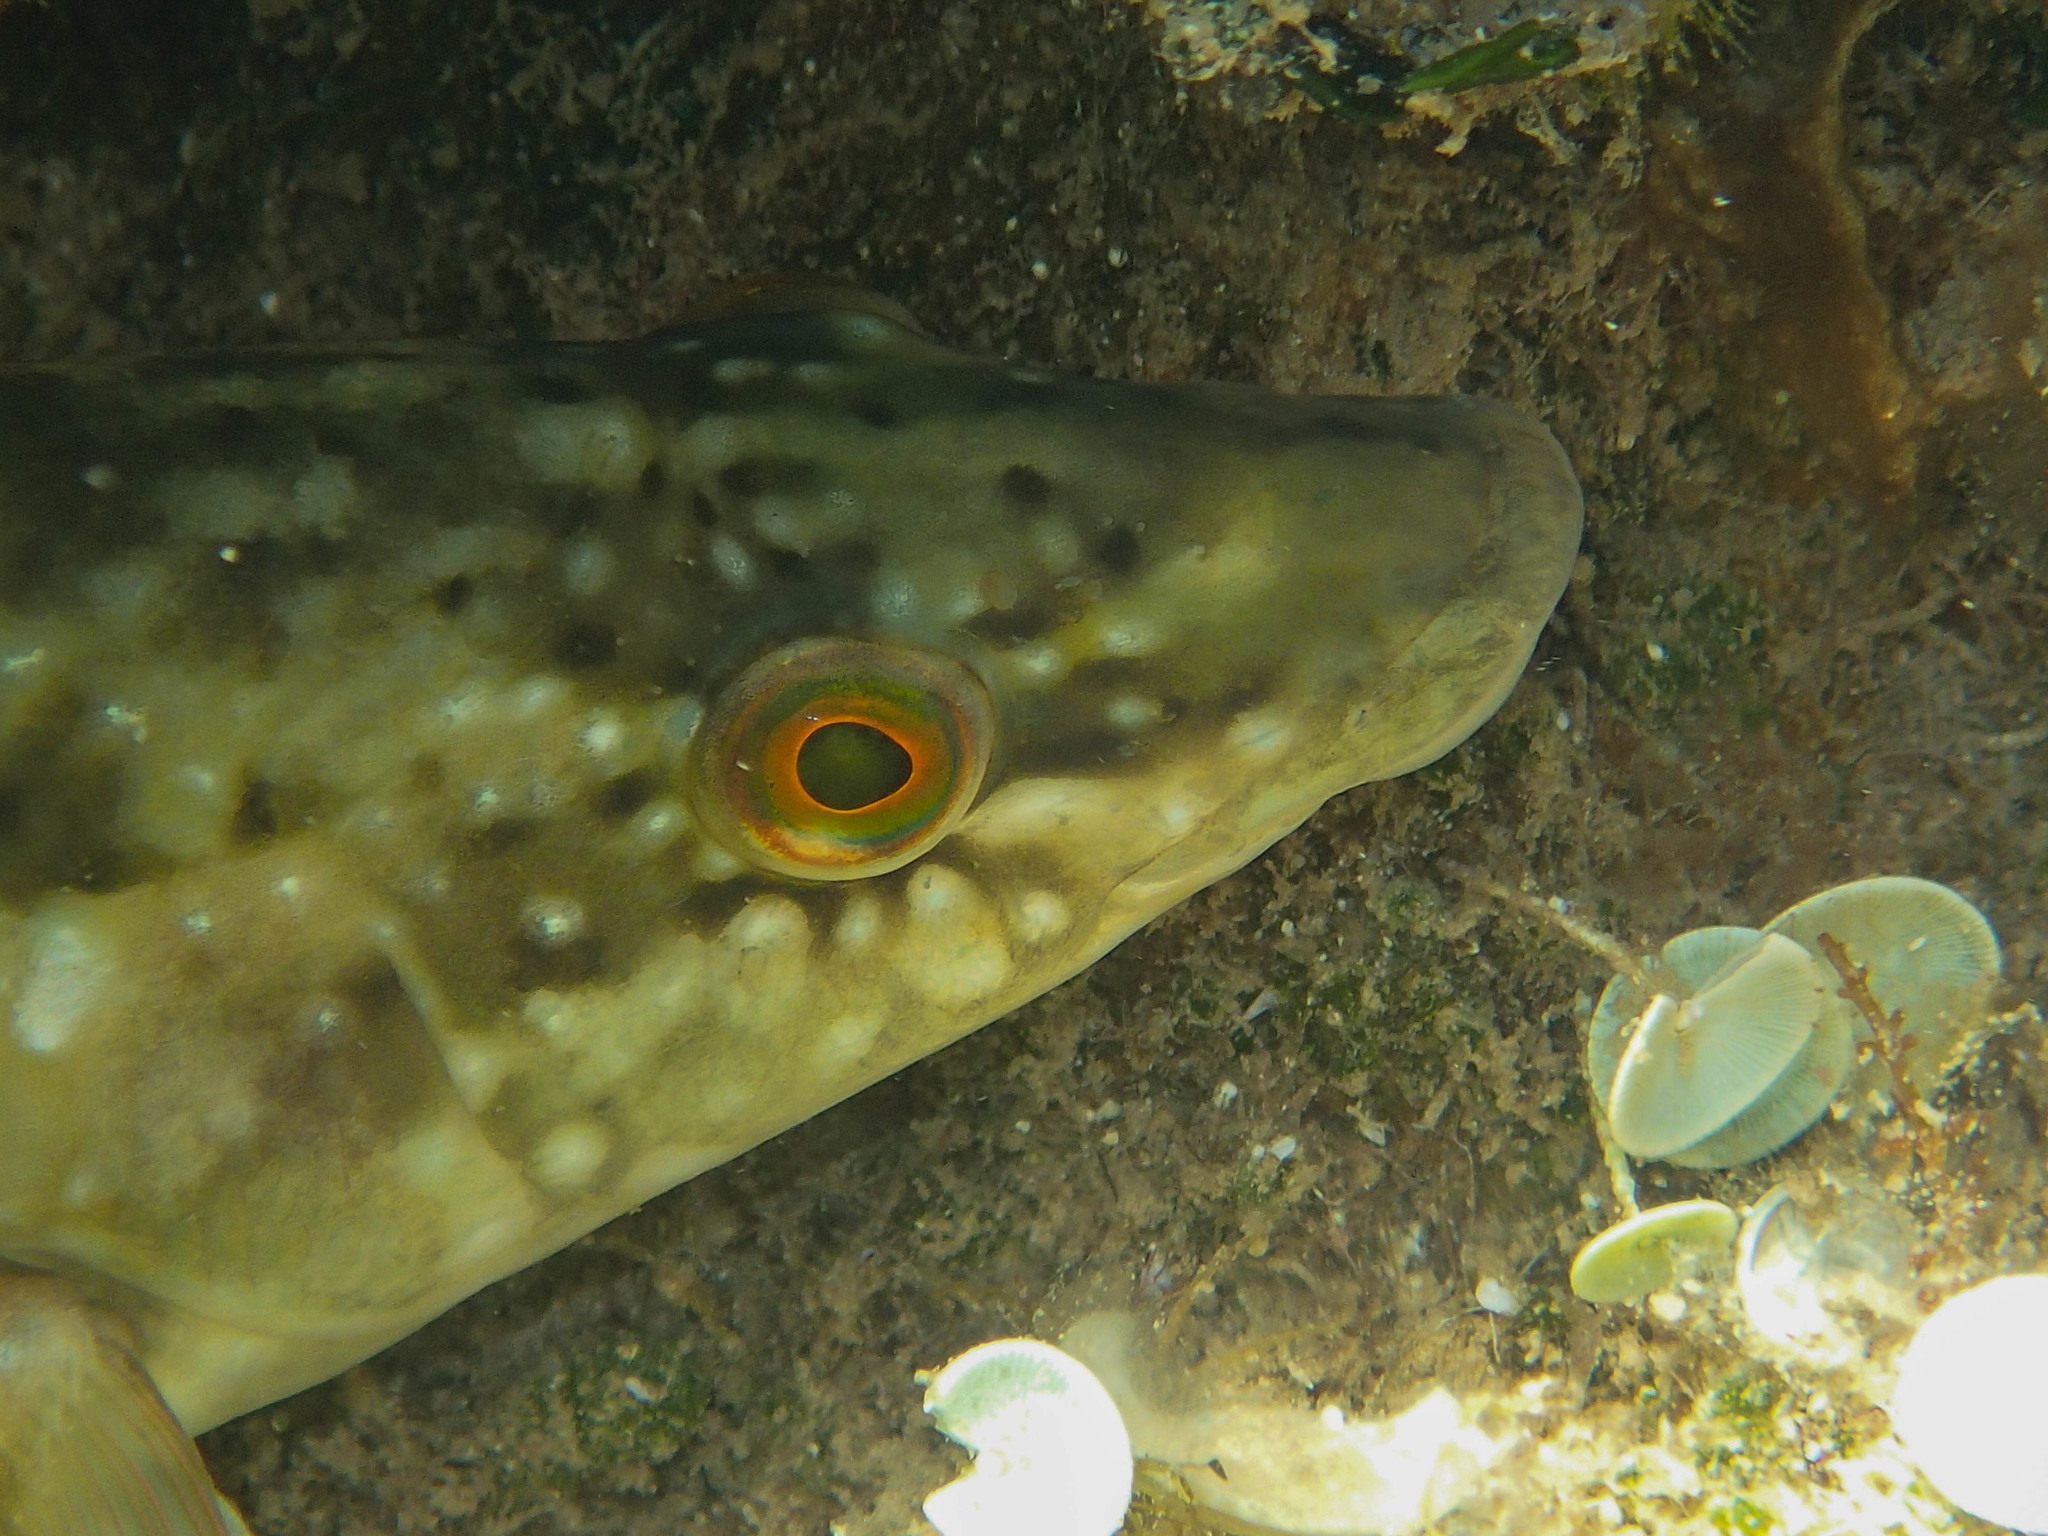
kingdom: Animalia
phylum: Chordata
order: Perciformes
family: Labridae
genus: Labrus
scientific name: Labrus merula
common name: Brown wrasse
